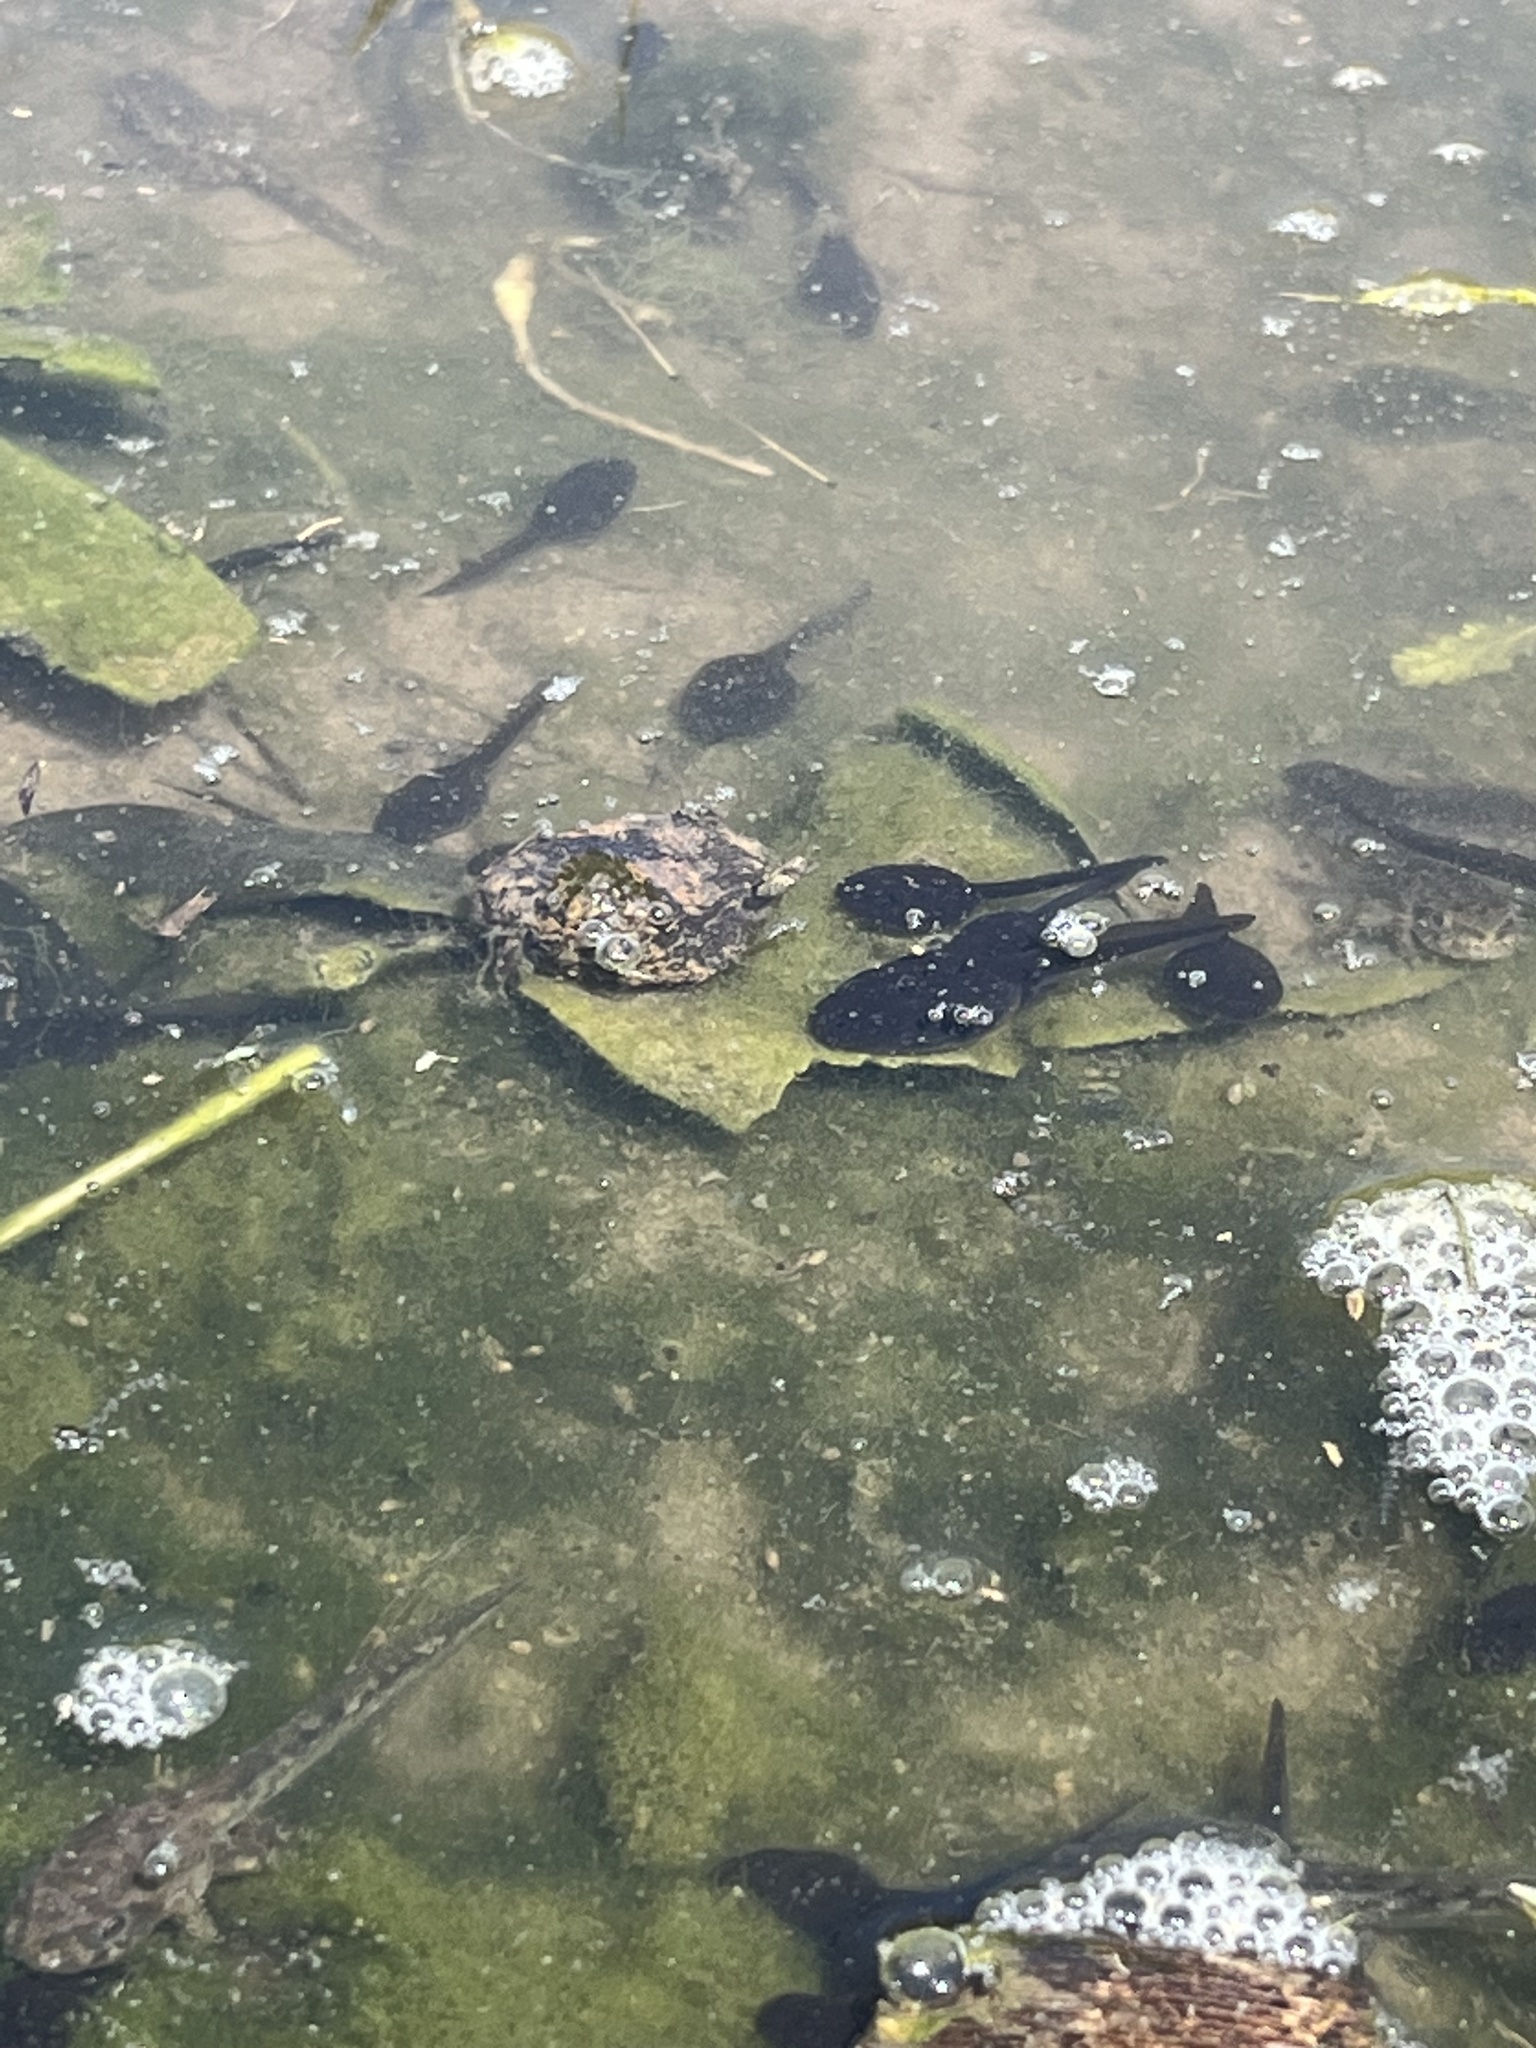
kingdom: Animalia
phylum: Chordata
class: Amphibia
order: Anura
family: Bufonidae
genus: Anaxyrus
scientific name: Anaxyrus boreas
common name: Western toad
